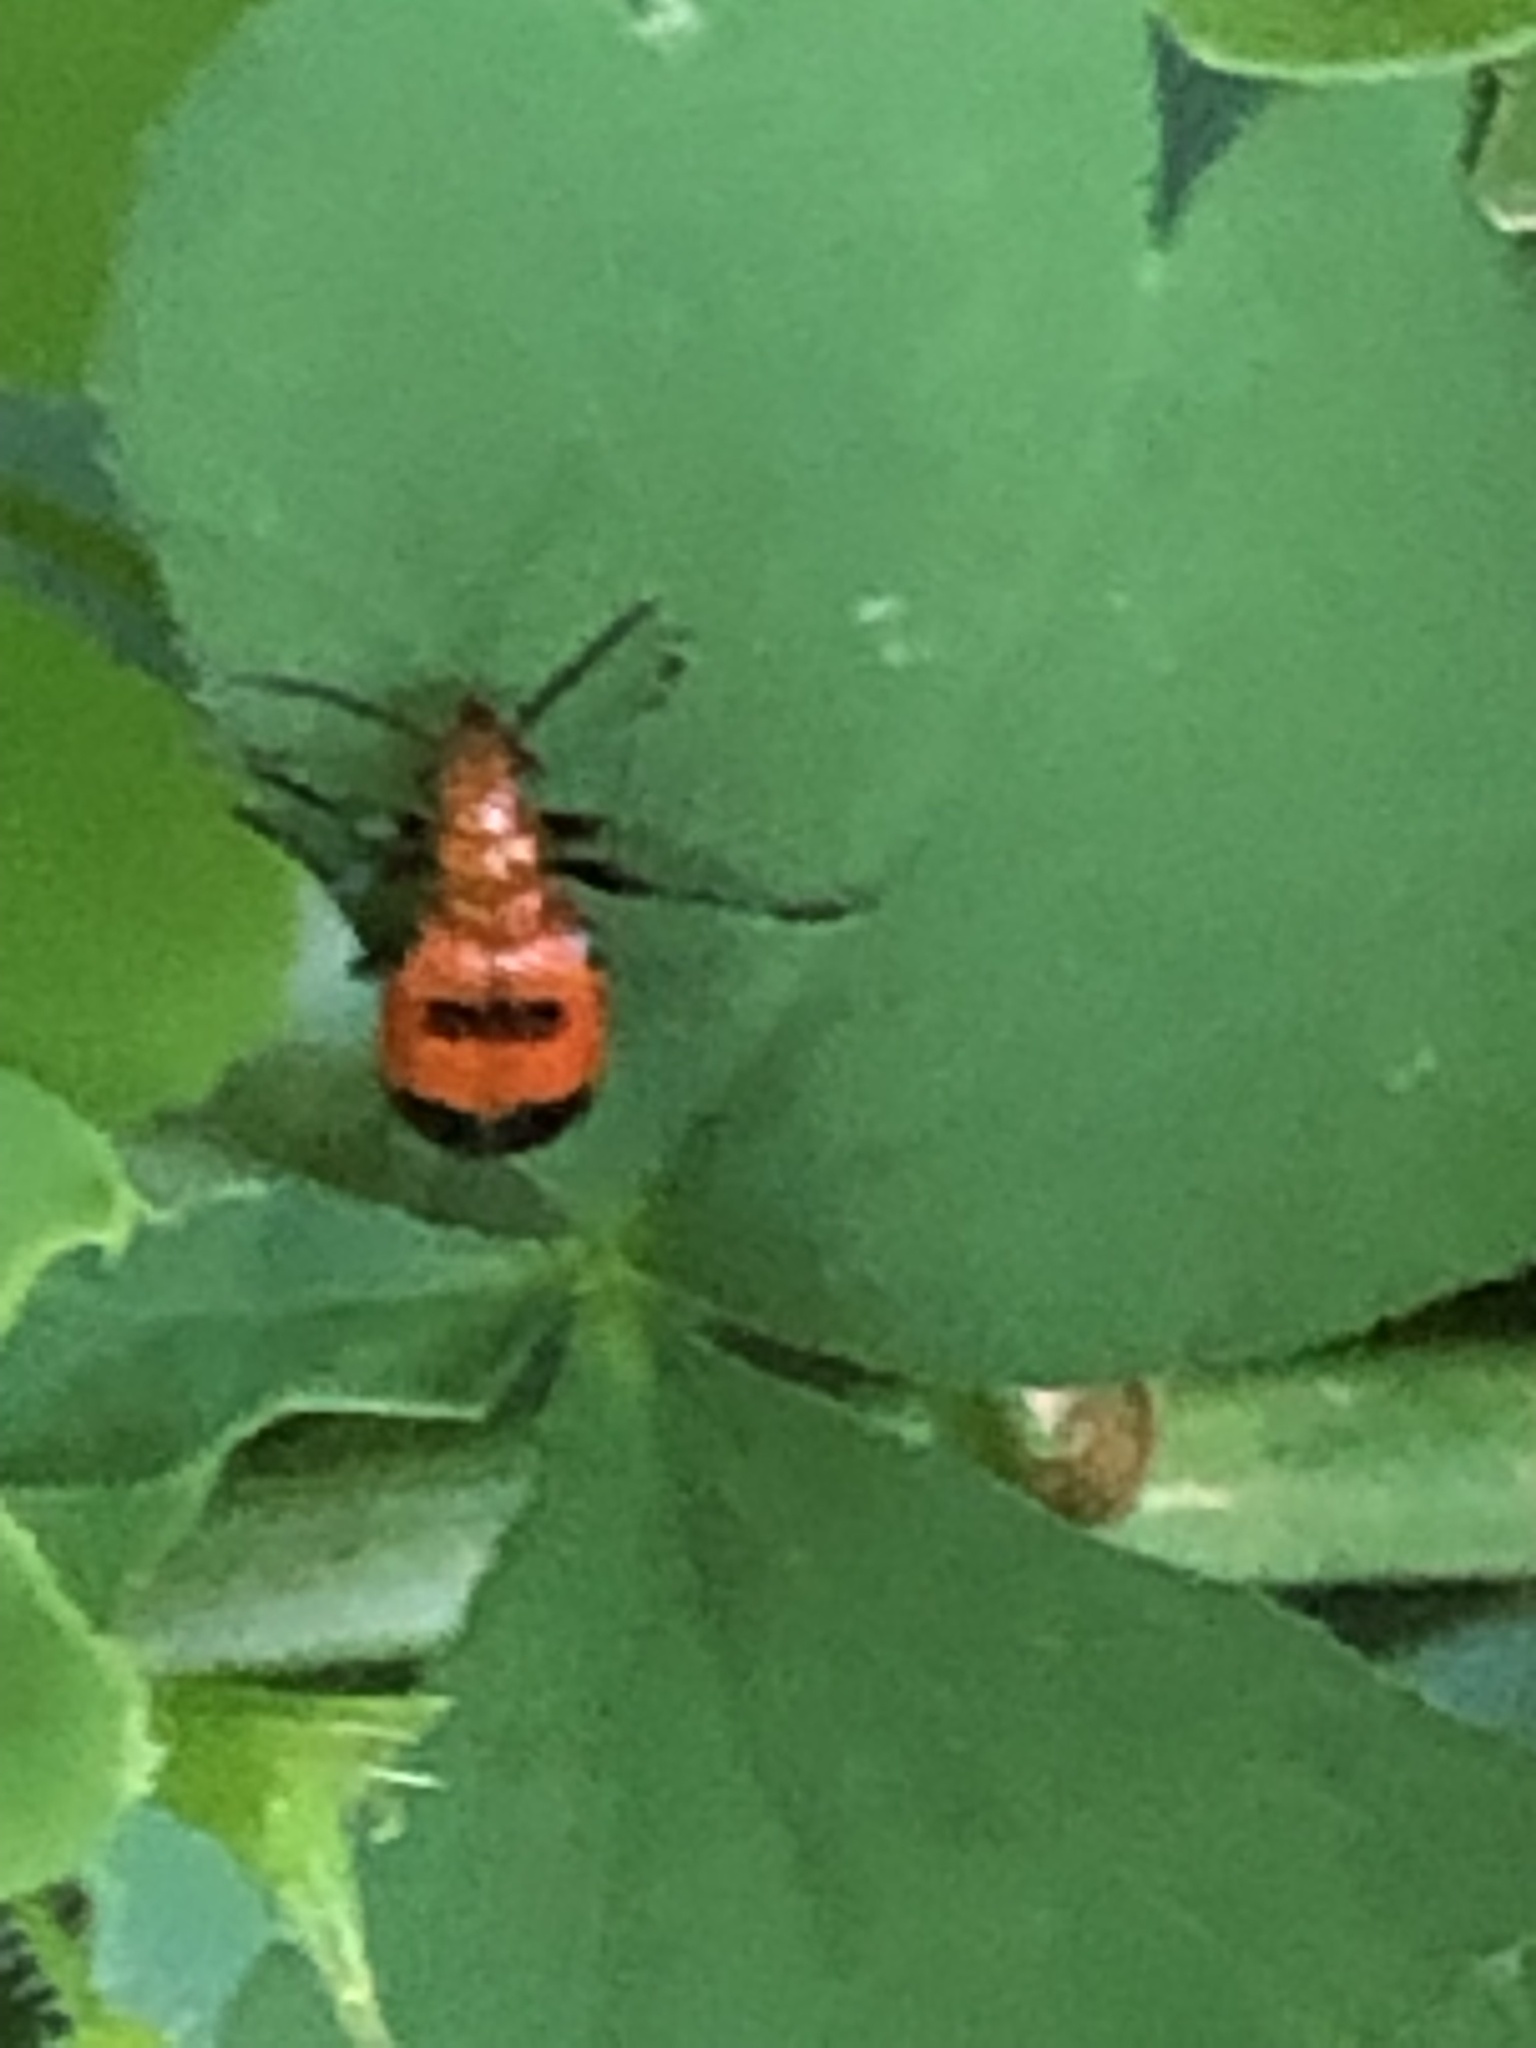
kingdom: Animalia
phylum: Arthropoda
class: Insecta
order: Coleoptera
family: Chrysomelidae
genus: Neolema
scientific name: Neolema sexpunctata
